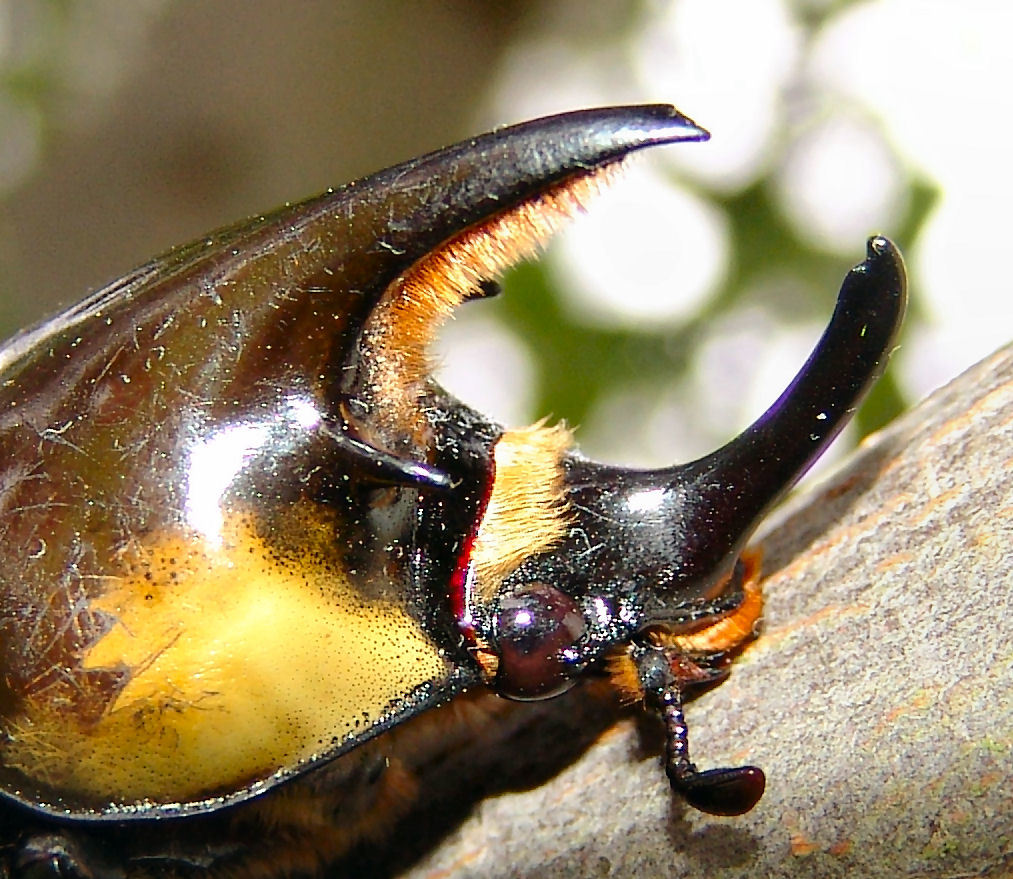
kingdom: Animalia
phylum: Arthropoda
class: Insecta
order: Coleoptera
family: Scarabaeidae
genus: Dynastes
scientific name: Dynastes tityus
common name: Eastern hercules beetle
